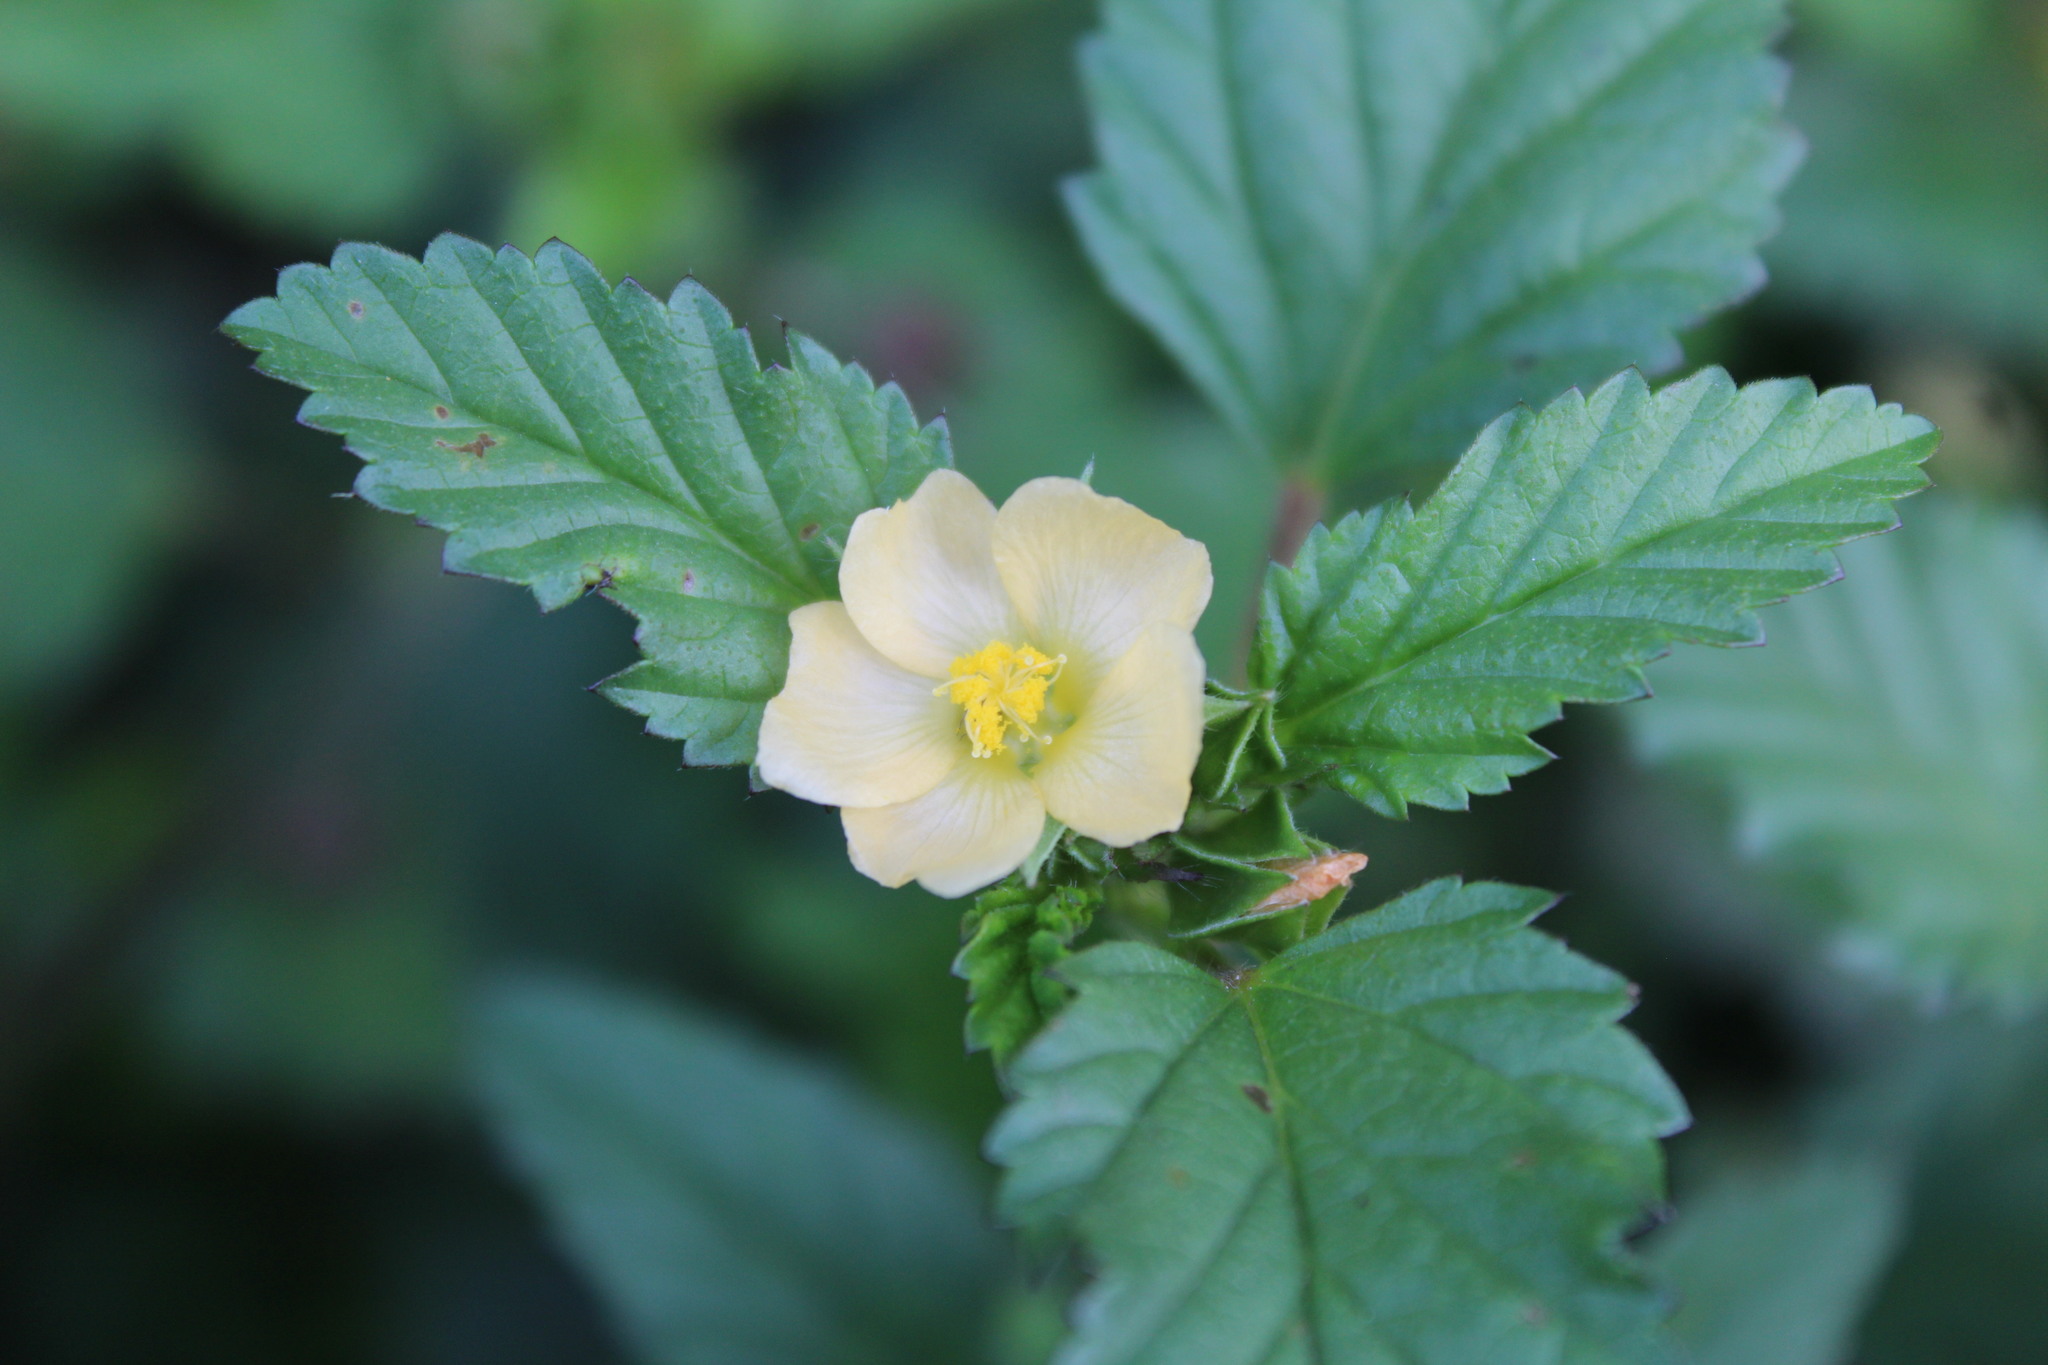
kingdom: Plantae
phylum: Tracheophyta
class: Magnoliopsida
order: Malvales
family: Malvaceae
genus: Malvastrum
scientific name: Malvastrum coromandelianum
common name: Threelobe false mallow
